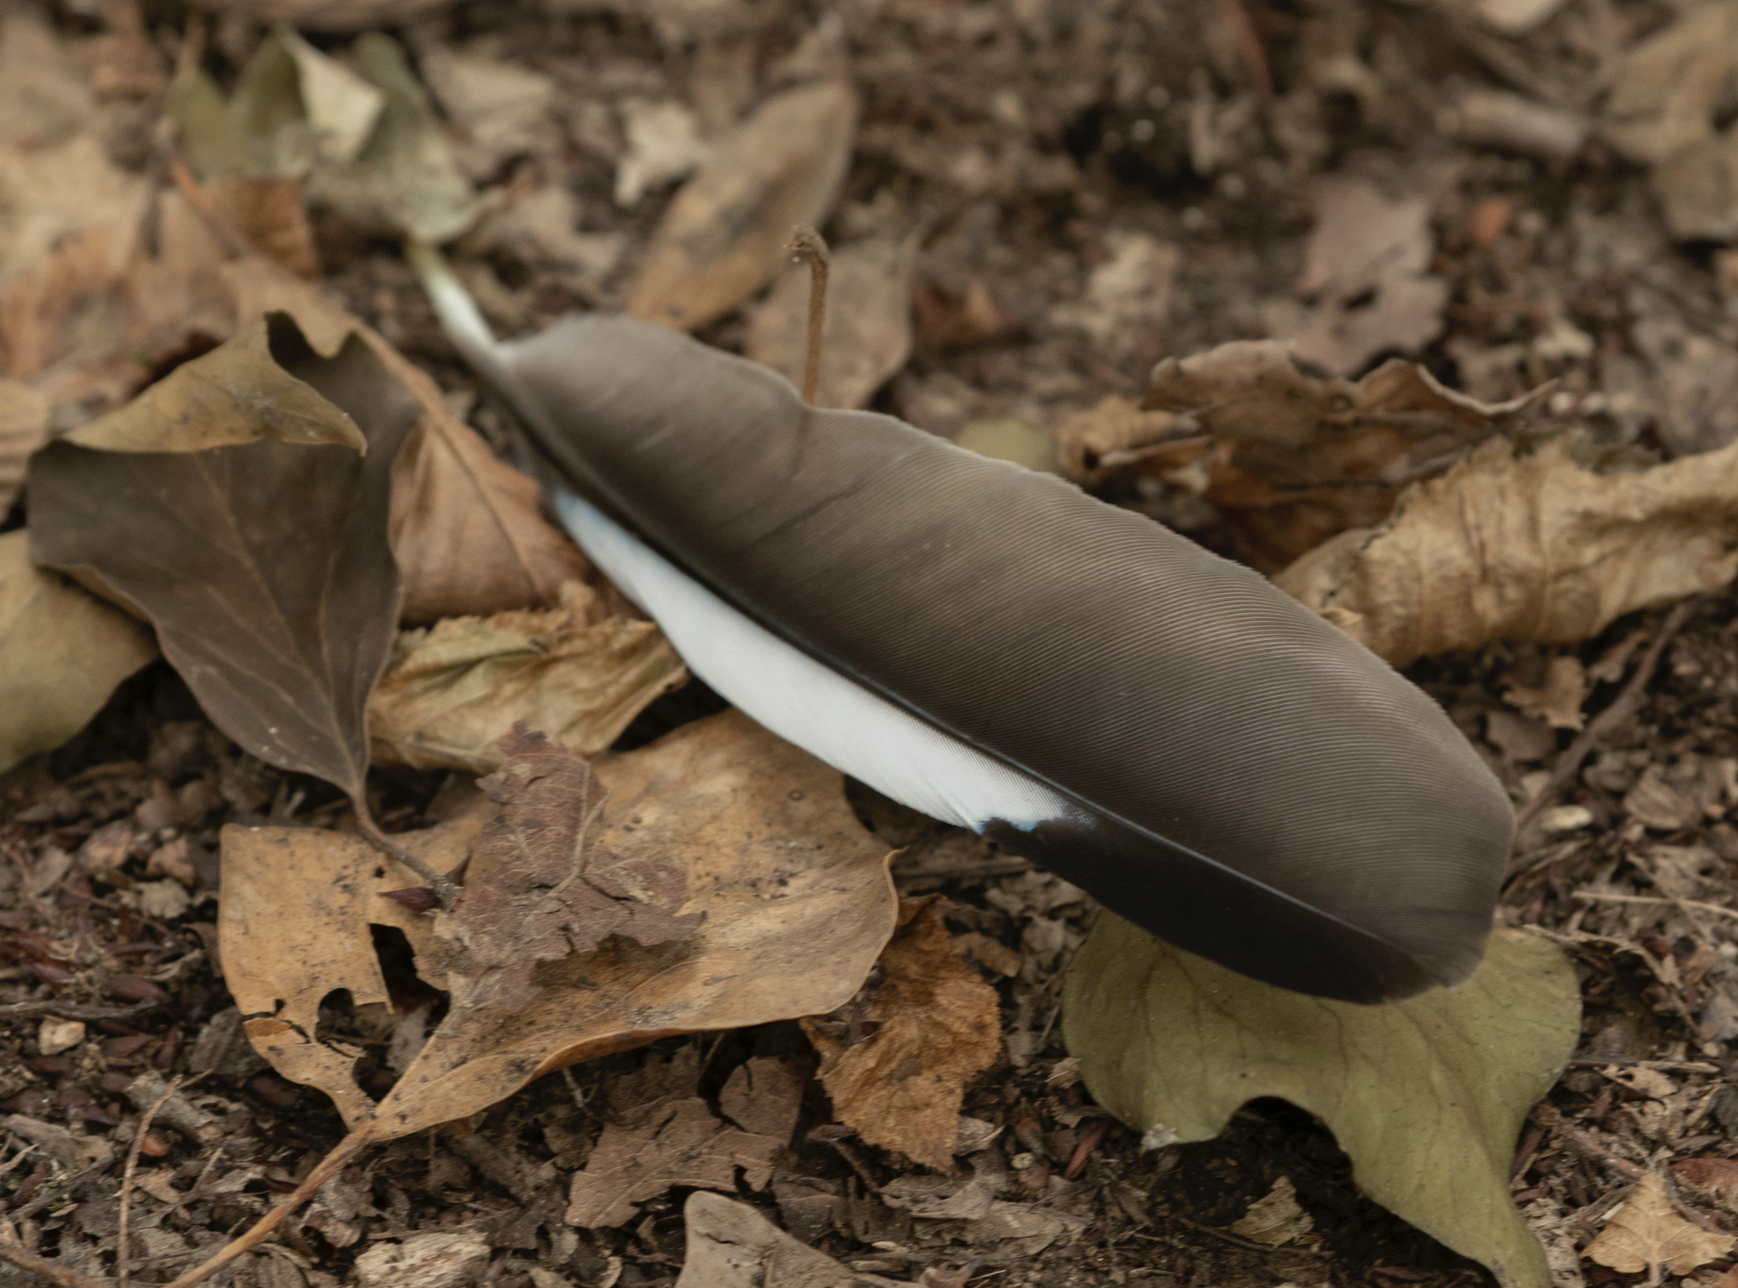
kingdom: Animalia
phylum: Chordata
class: Aves
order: Passeriformes
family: Corvidae
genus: Garrulus
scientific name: Garrulus glandarius
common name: Eurasian jay
